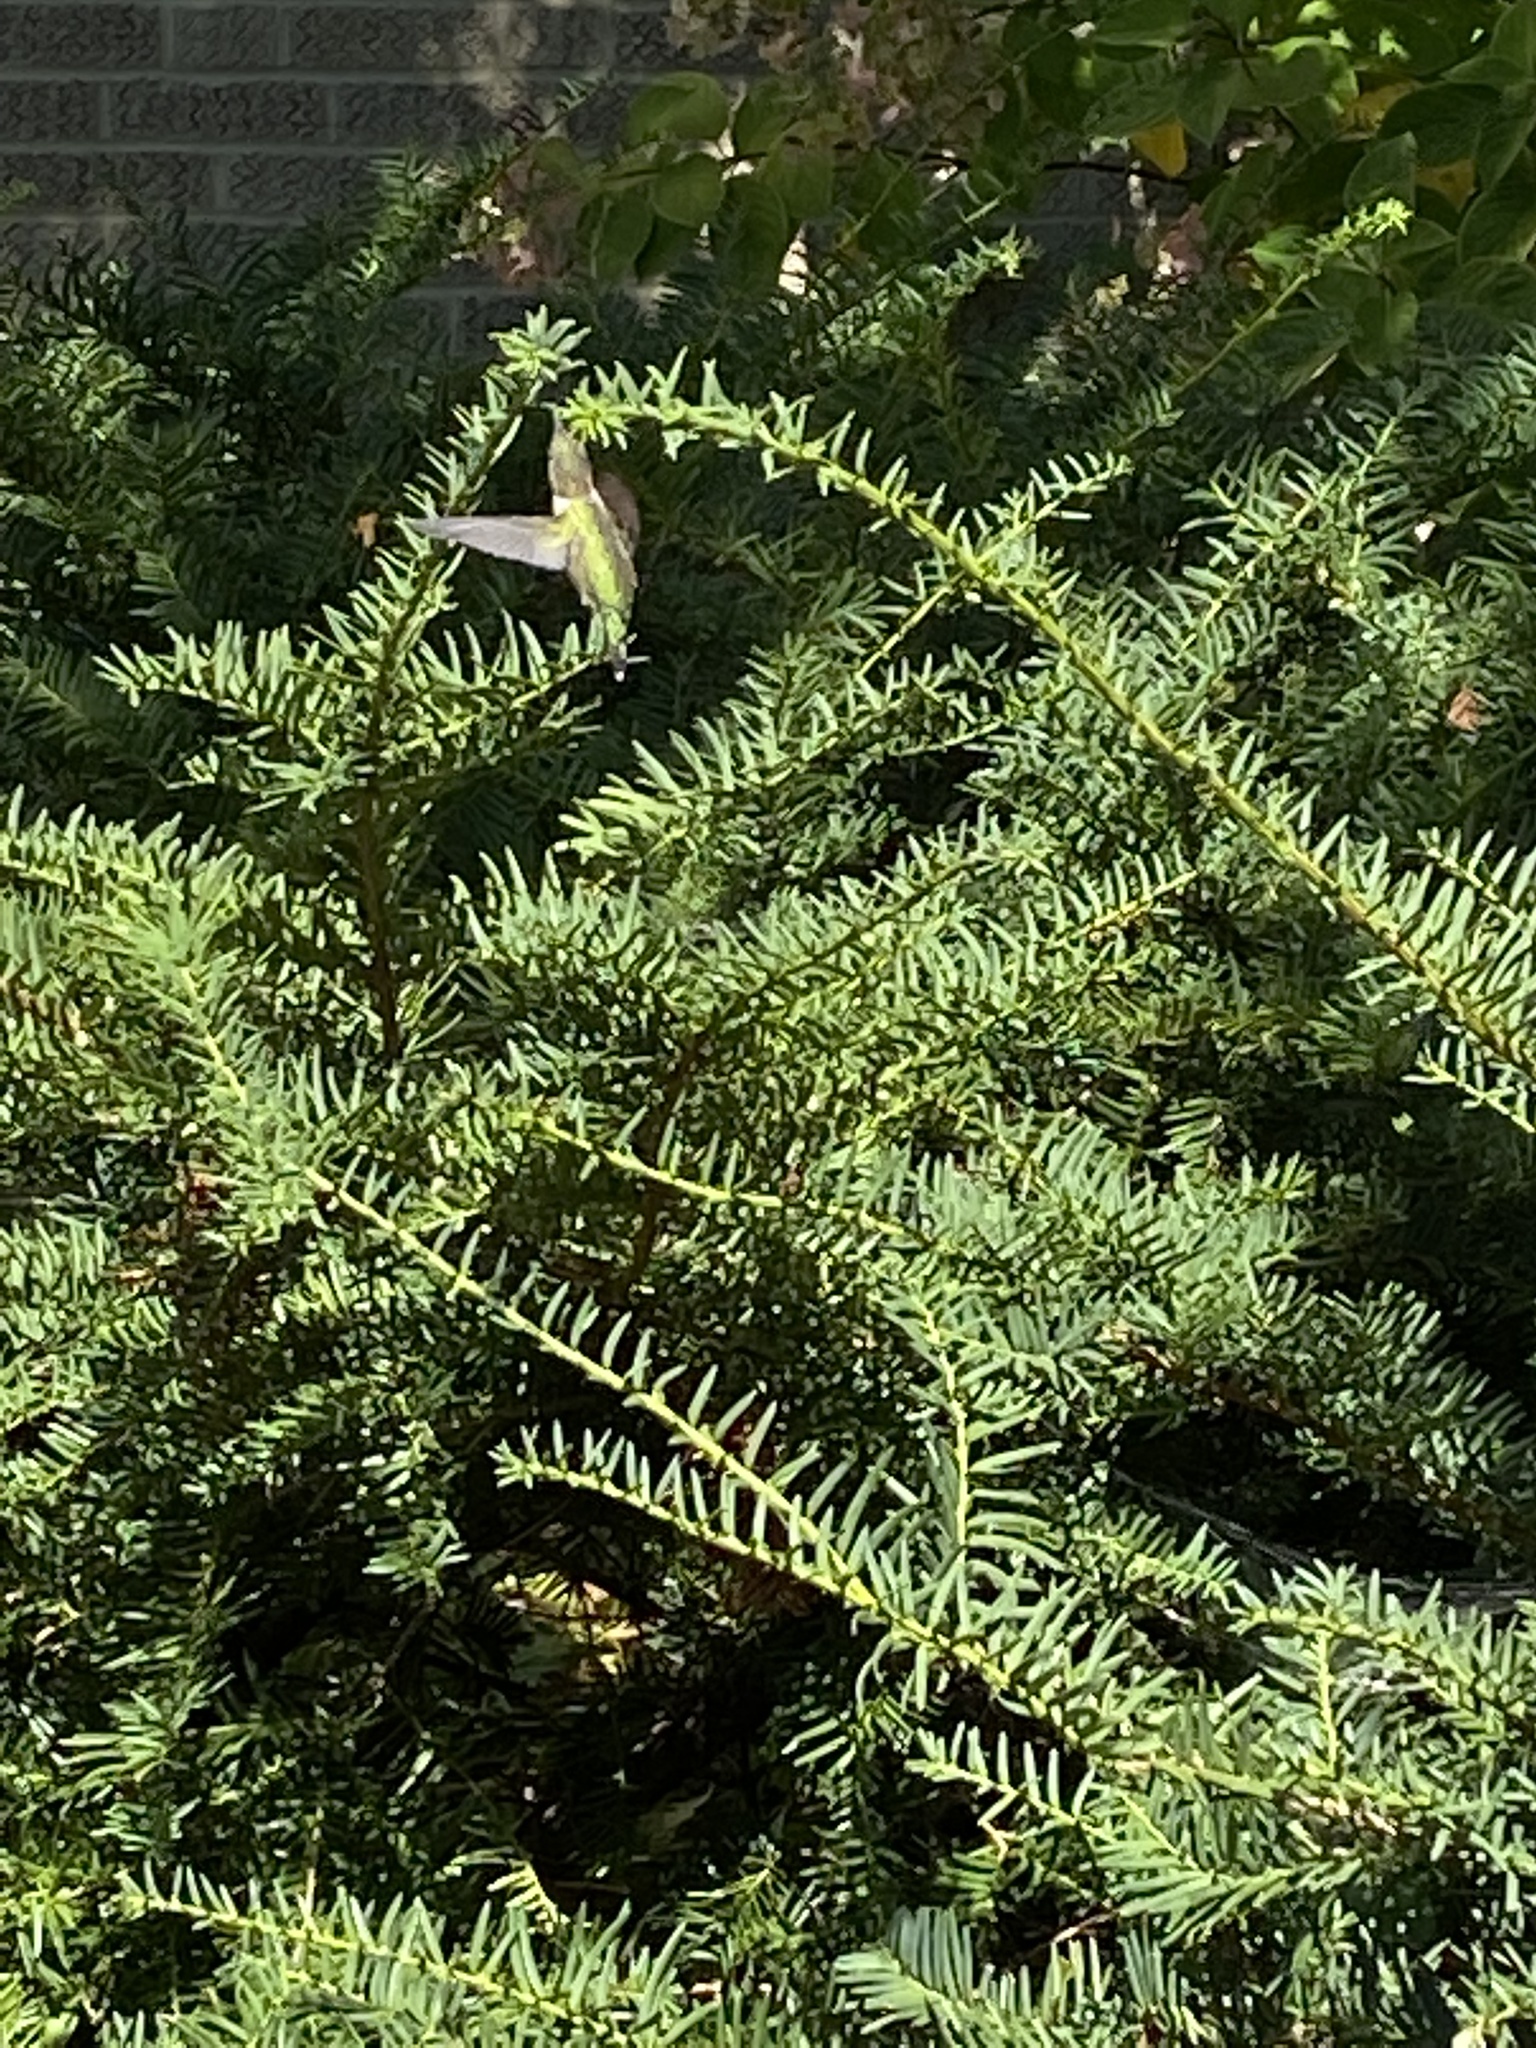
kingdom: Animalia
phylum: Chordata
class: Aves
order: Apodiformes
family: Trochilidae
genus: Archilochus
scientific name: Archilochus colubris
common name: Ruby-throated hummingbird
